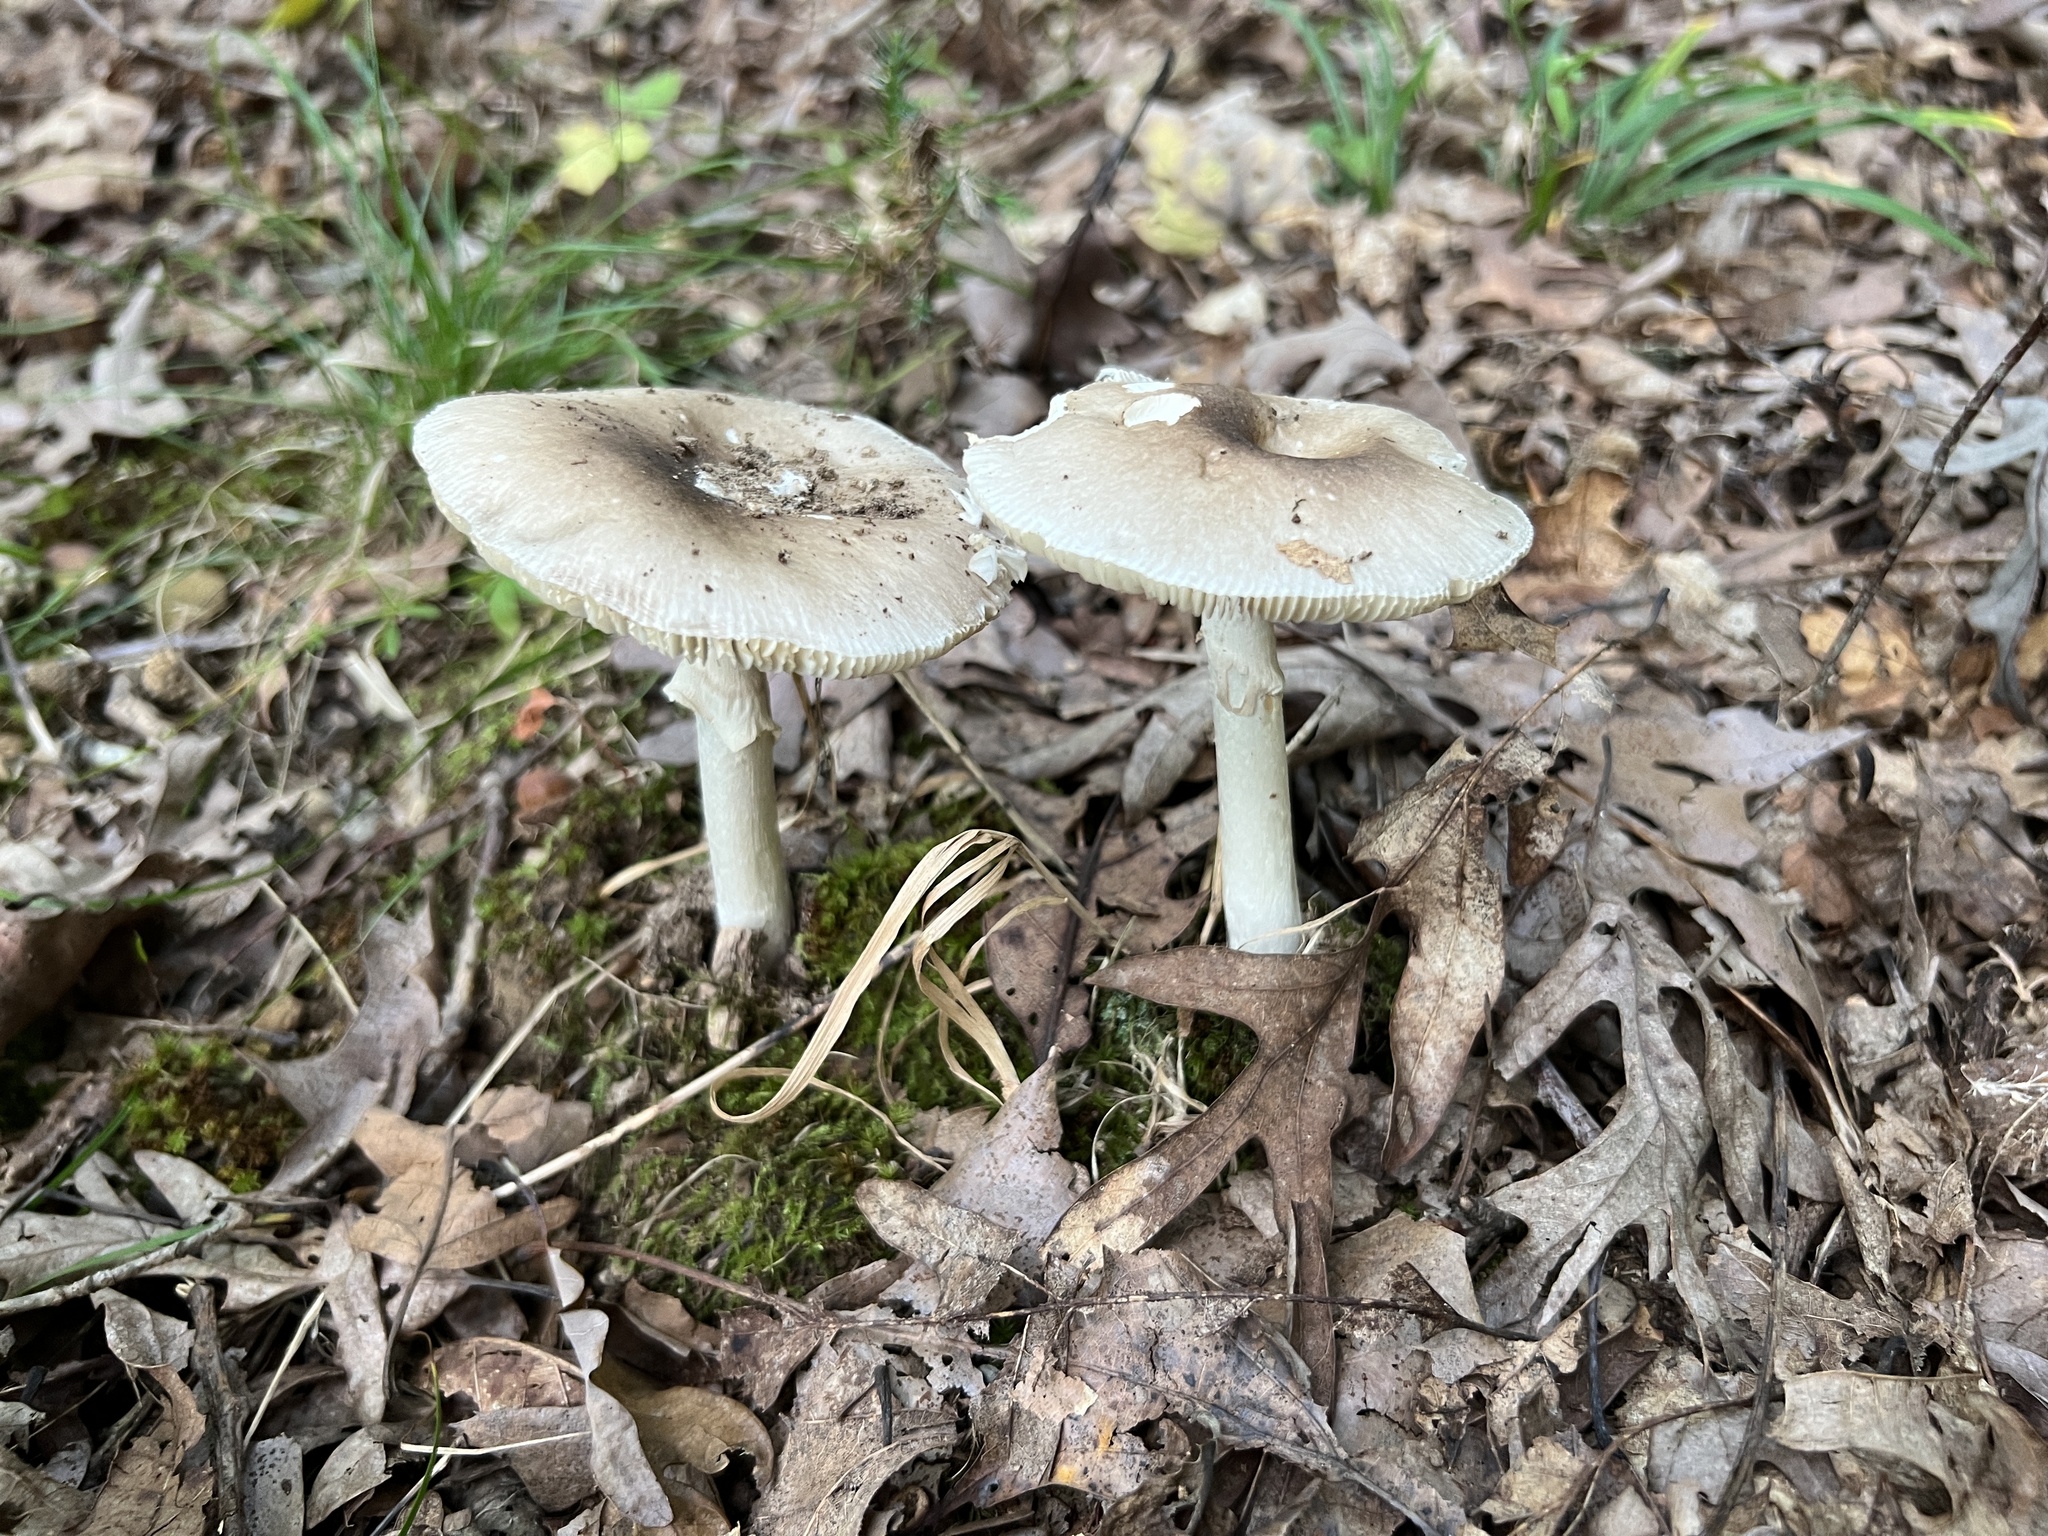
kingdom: Fungi
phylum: Basidiomycota
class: Agaricomycetes
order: Agaricales
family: Amanitaceae
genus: Amanita
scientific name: Amanita spreta
